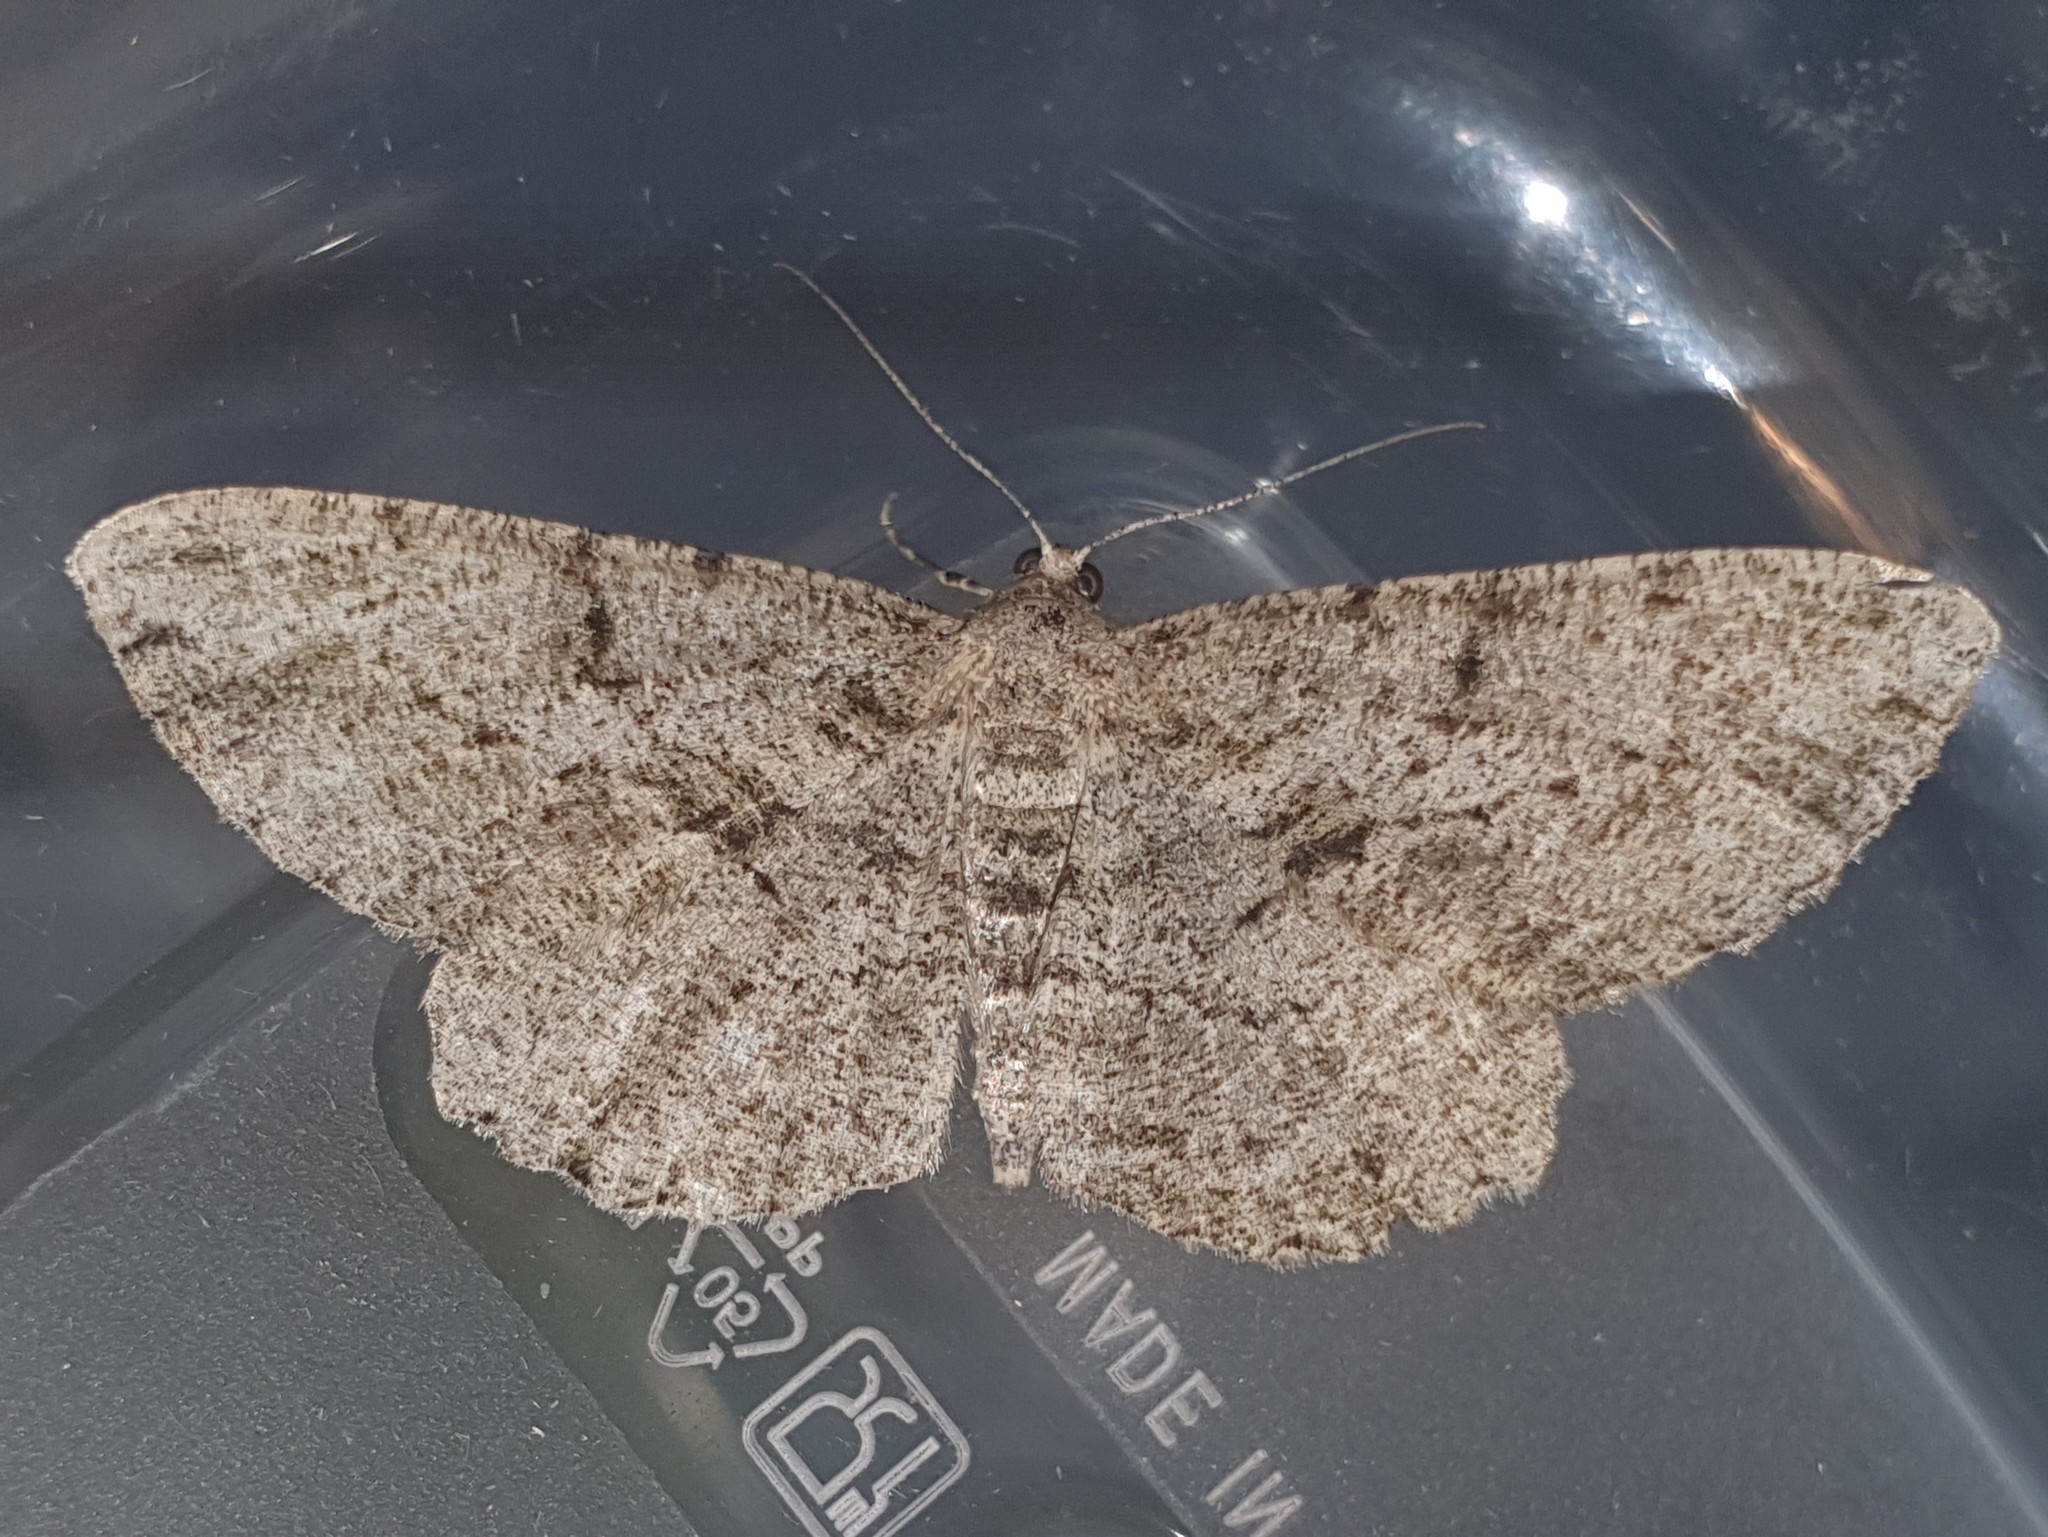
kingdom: Animalia
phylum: Arthropoda
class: Insecta
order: Lepidoptera
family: Geometridae
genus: Peribatodes
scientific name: Peribatodes rhomboidaria
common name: Willow beauty
